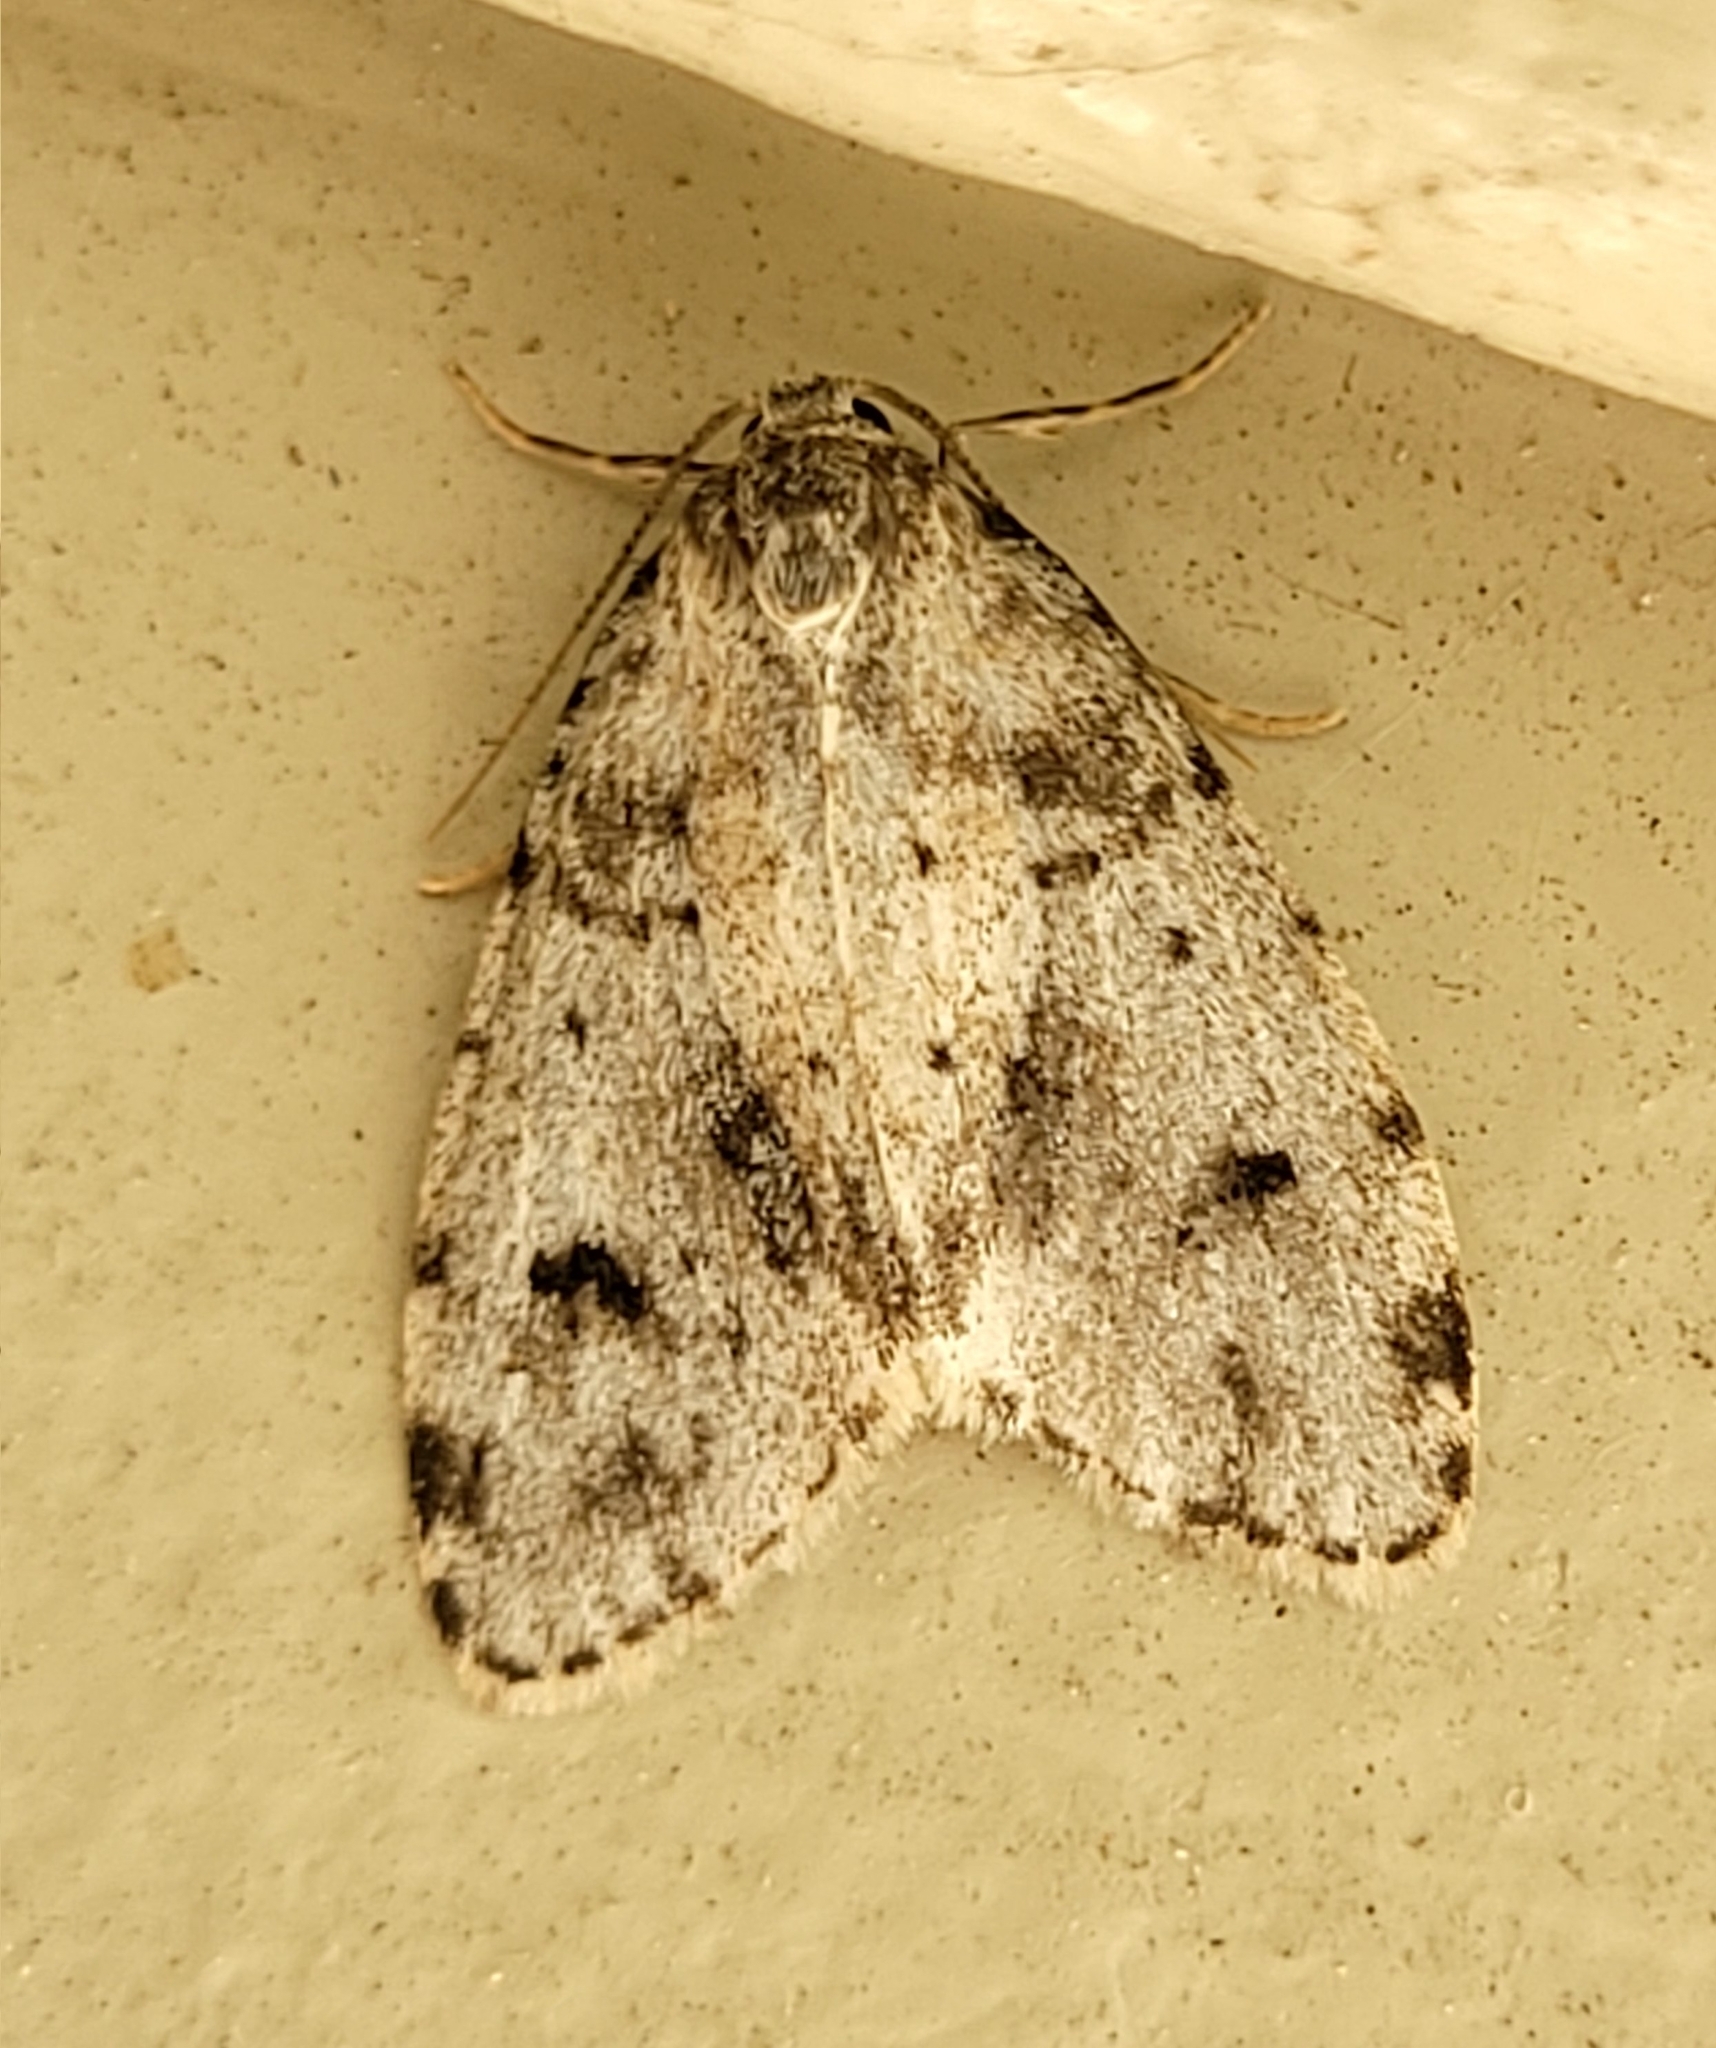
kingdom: Animalia
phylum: Arthropoda
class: Insecta
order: Lepidoptera
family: Erebidae
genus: Clemensia
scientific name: Clemensia umbrata
